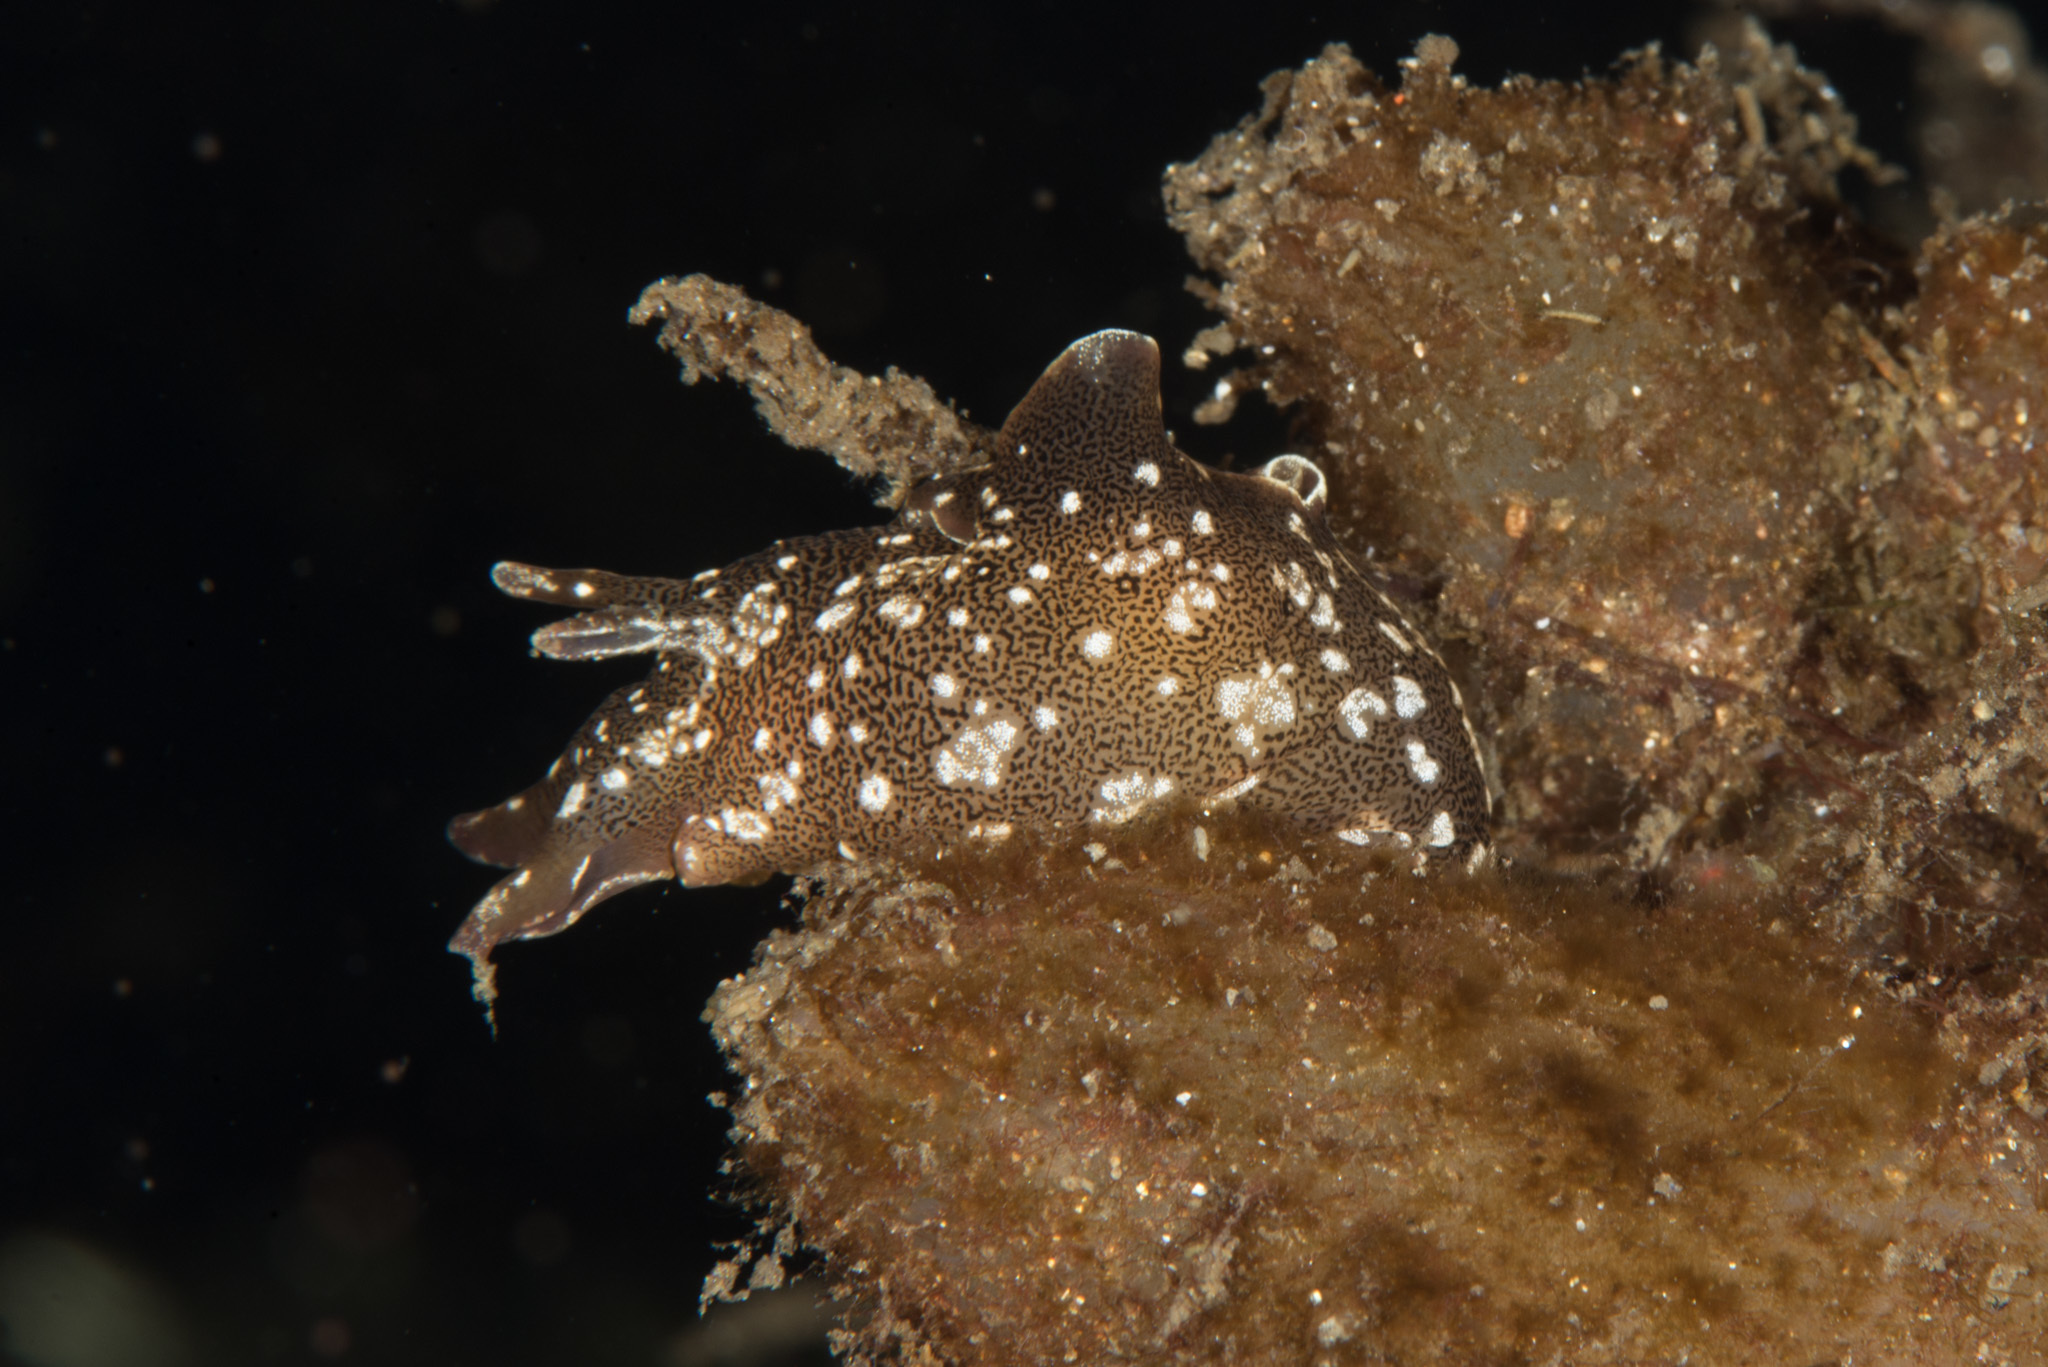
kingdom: Animalia
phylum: Mollusca
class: Gastropoda
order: Aplysiida
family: Aplysiidae
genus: Aplysia
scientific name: Aplysia punctata
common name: Common sea hare
